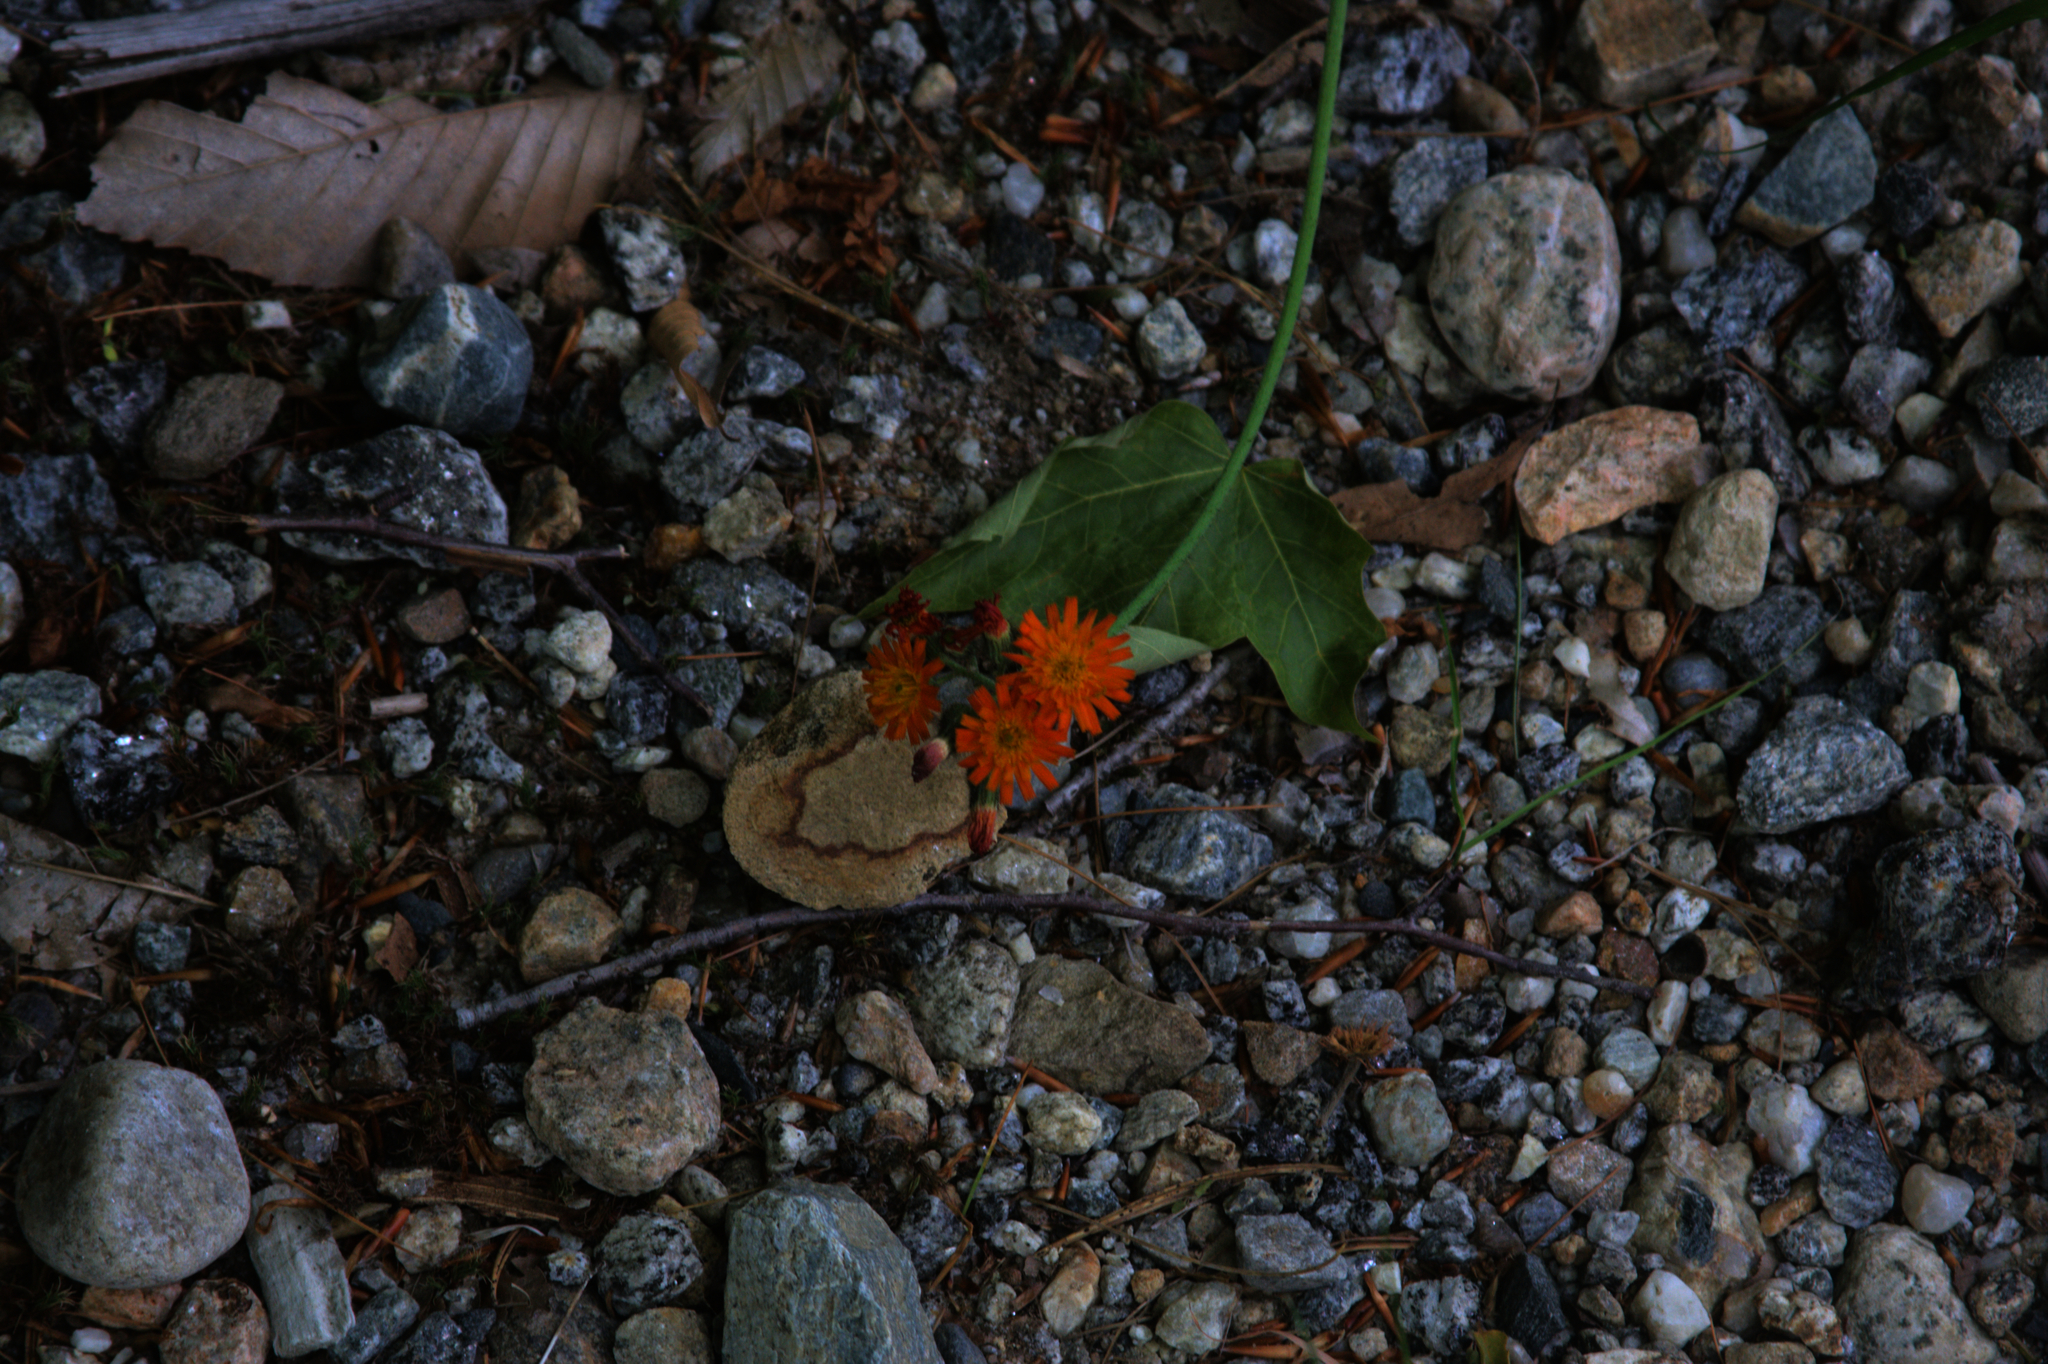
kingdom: Plantae
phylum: Tracheophyta
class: Magnoliopsida
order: Asterales
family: Asteraceae
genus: Pilosella
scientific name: Pilosella aurantiaca
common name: Fox-and-cubs
